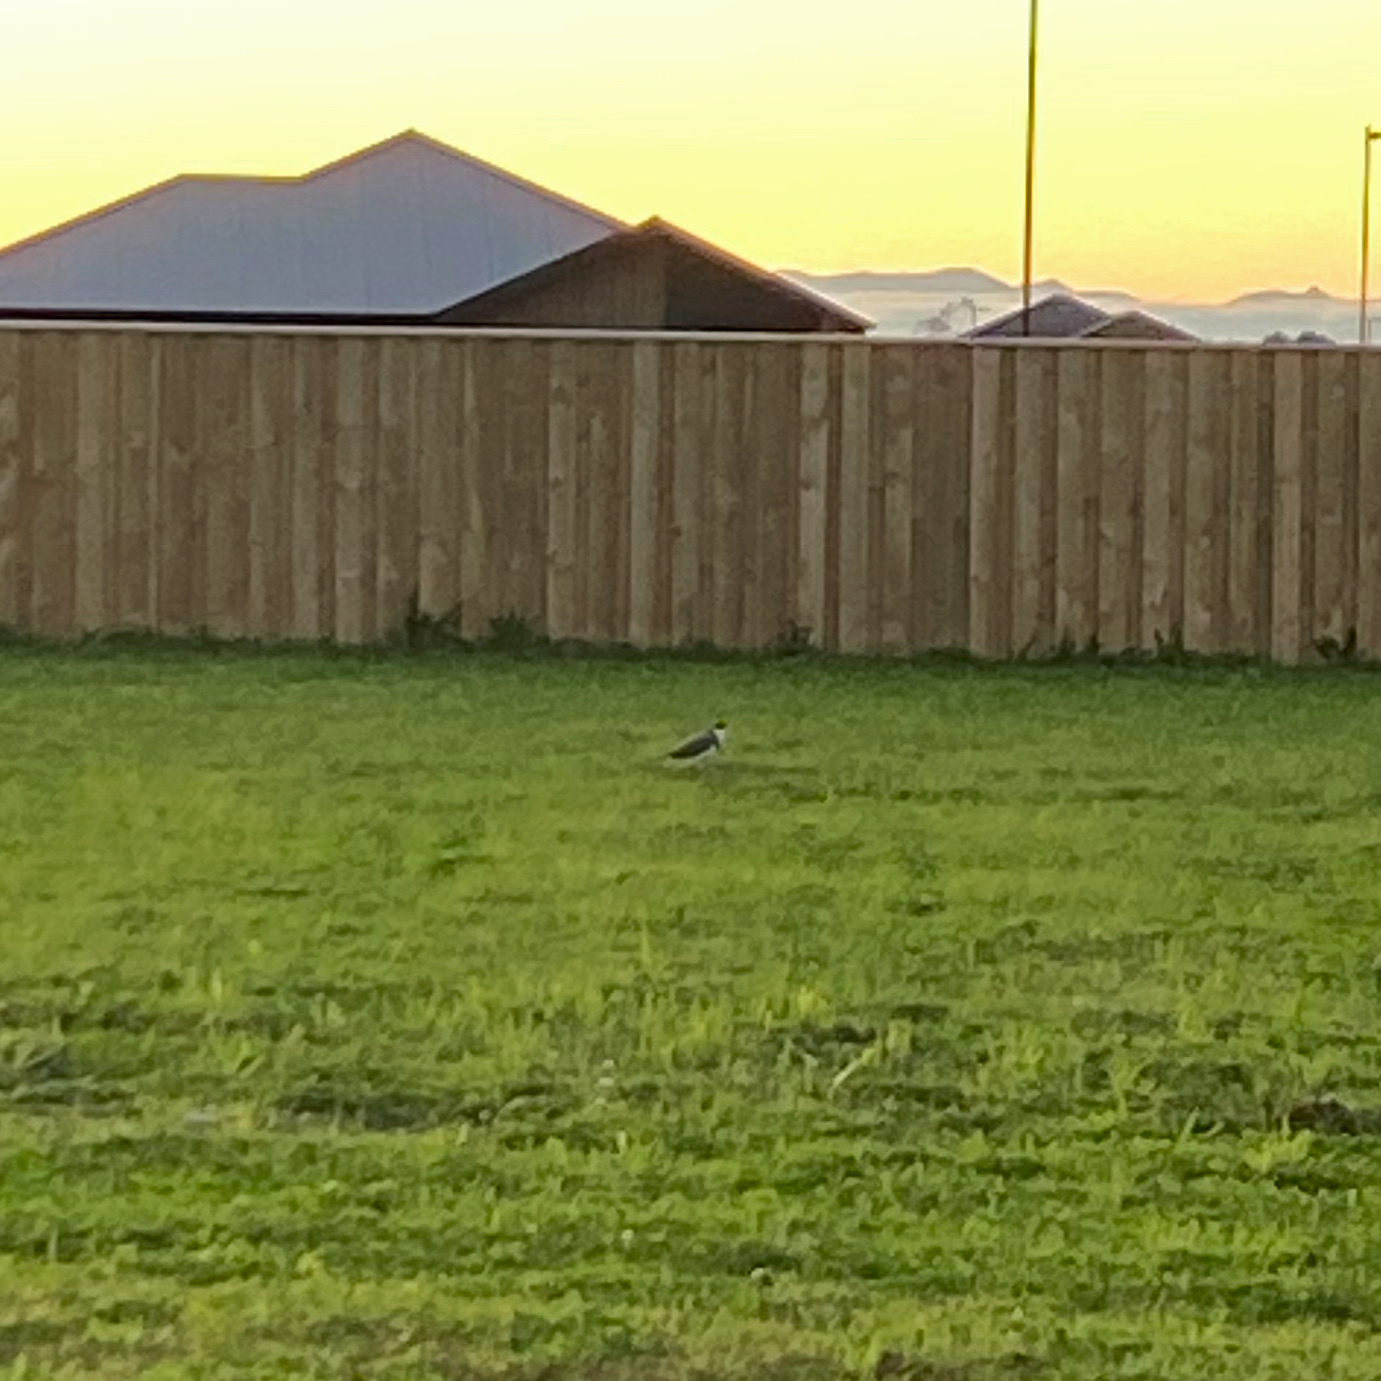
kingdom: Animalia
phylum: Chordata
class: Aves
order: Charadriiformes
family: Charadriidae
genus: Vanellus
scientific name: Vanellus miles
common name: Masked lapwing
